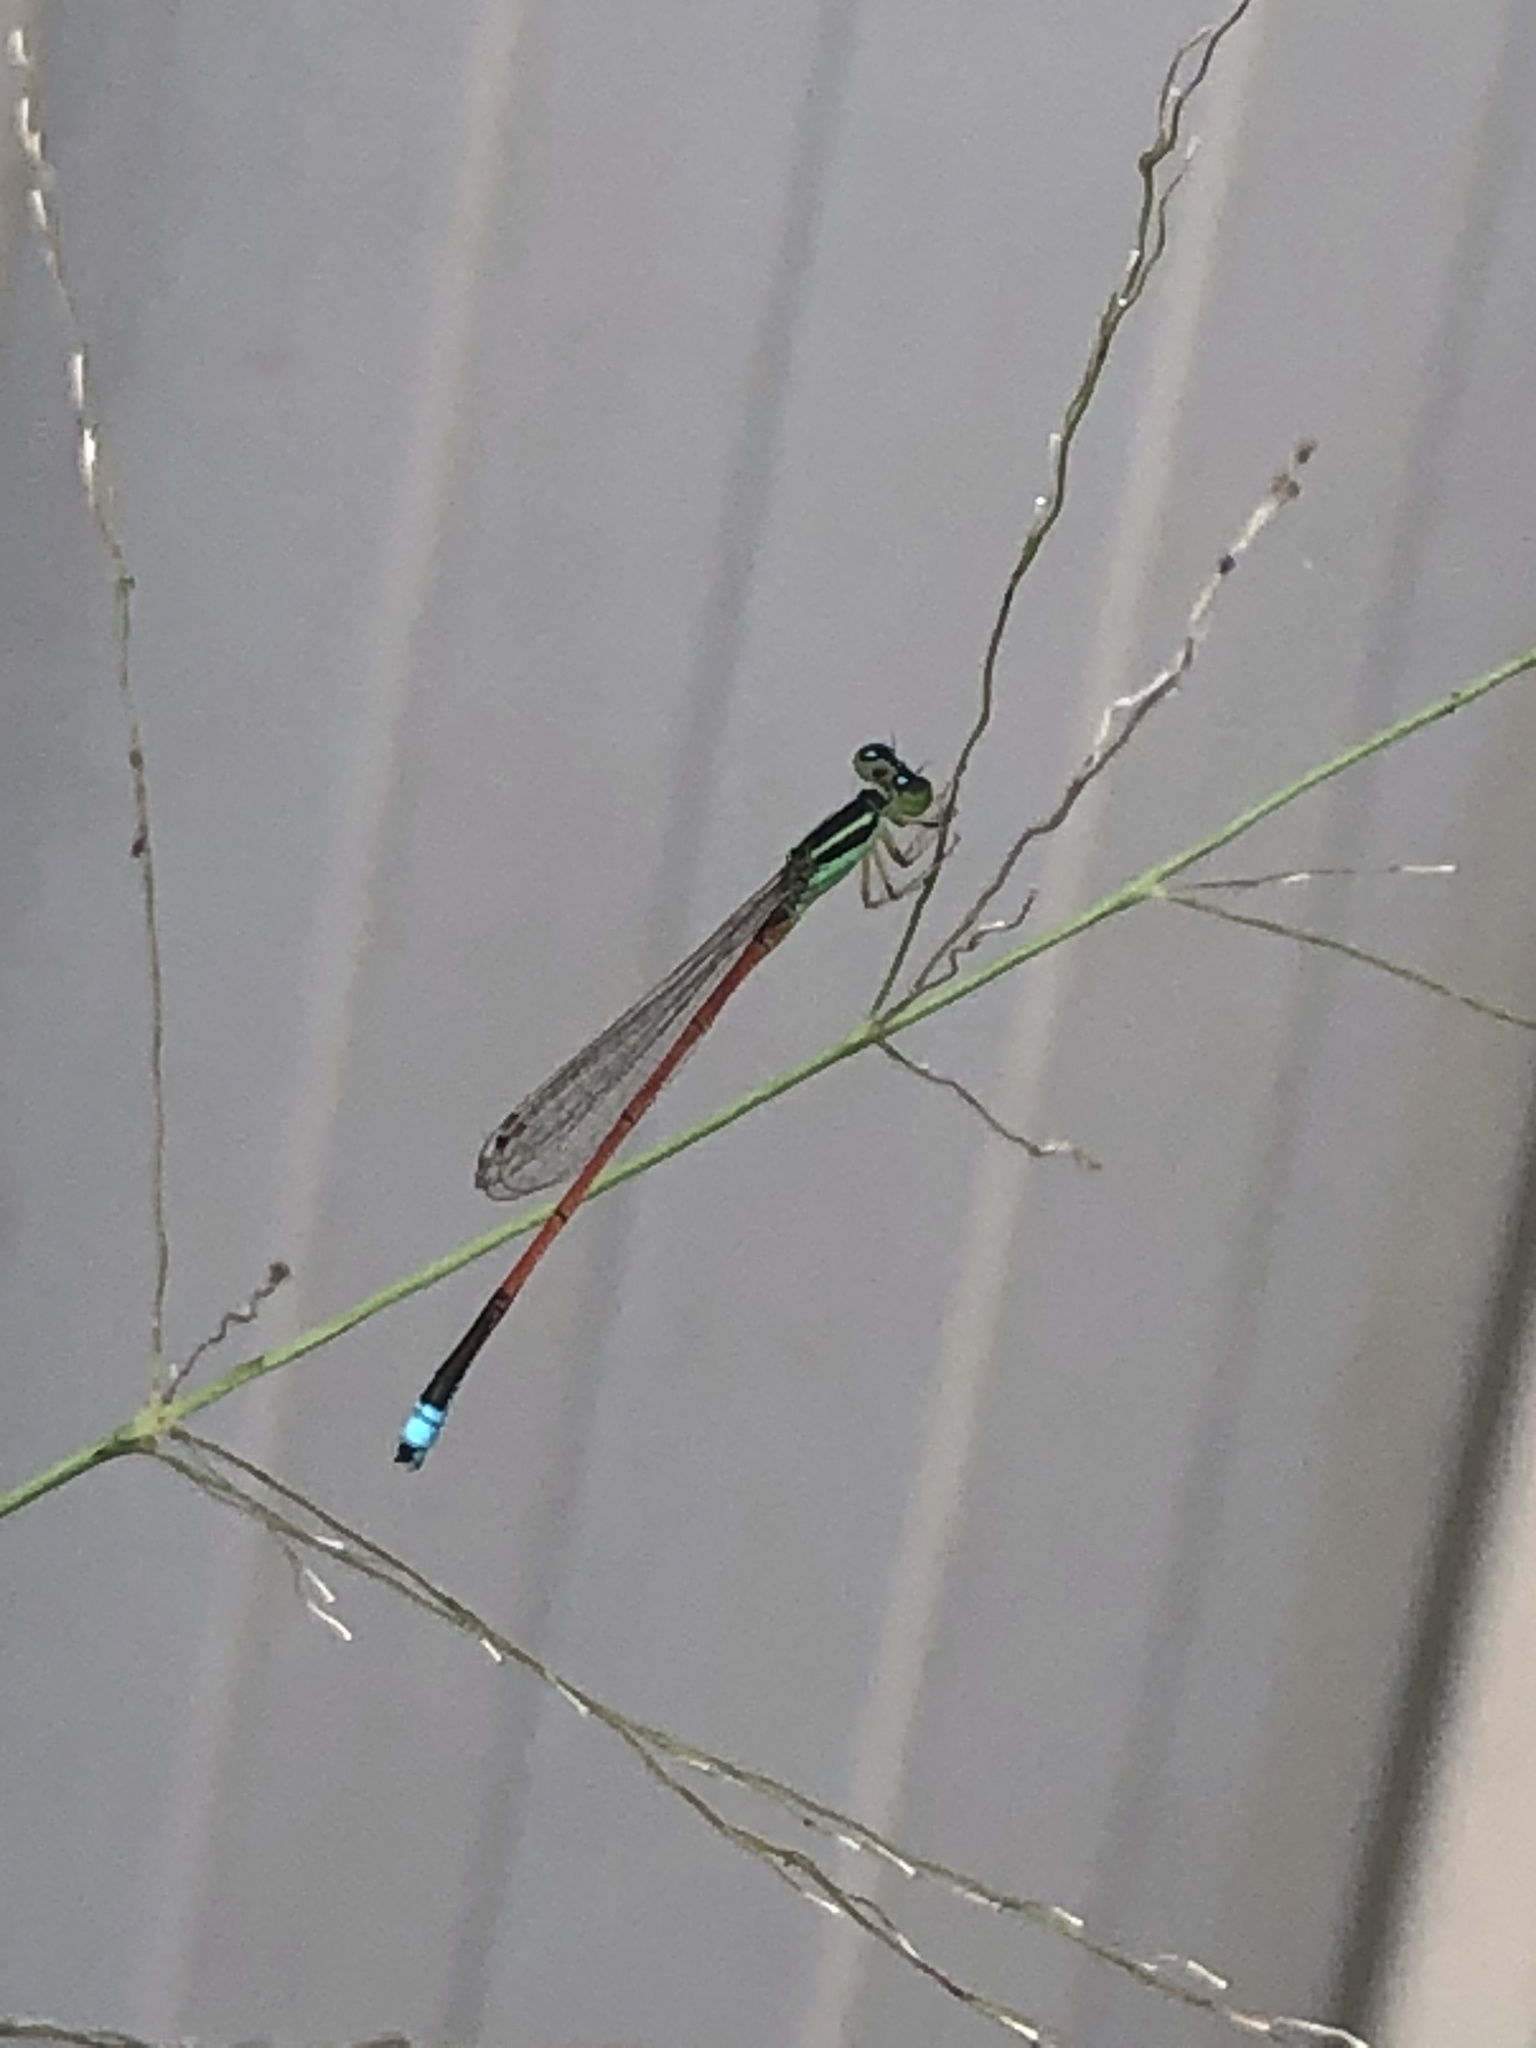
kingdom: Animalia
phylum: Arthropoda
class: Insecta
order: Odonata
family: Coenagrionidae
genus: Ischnura
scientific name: Ischnura aurora
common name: Gossamer damselfly
